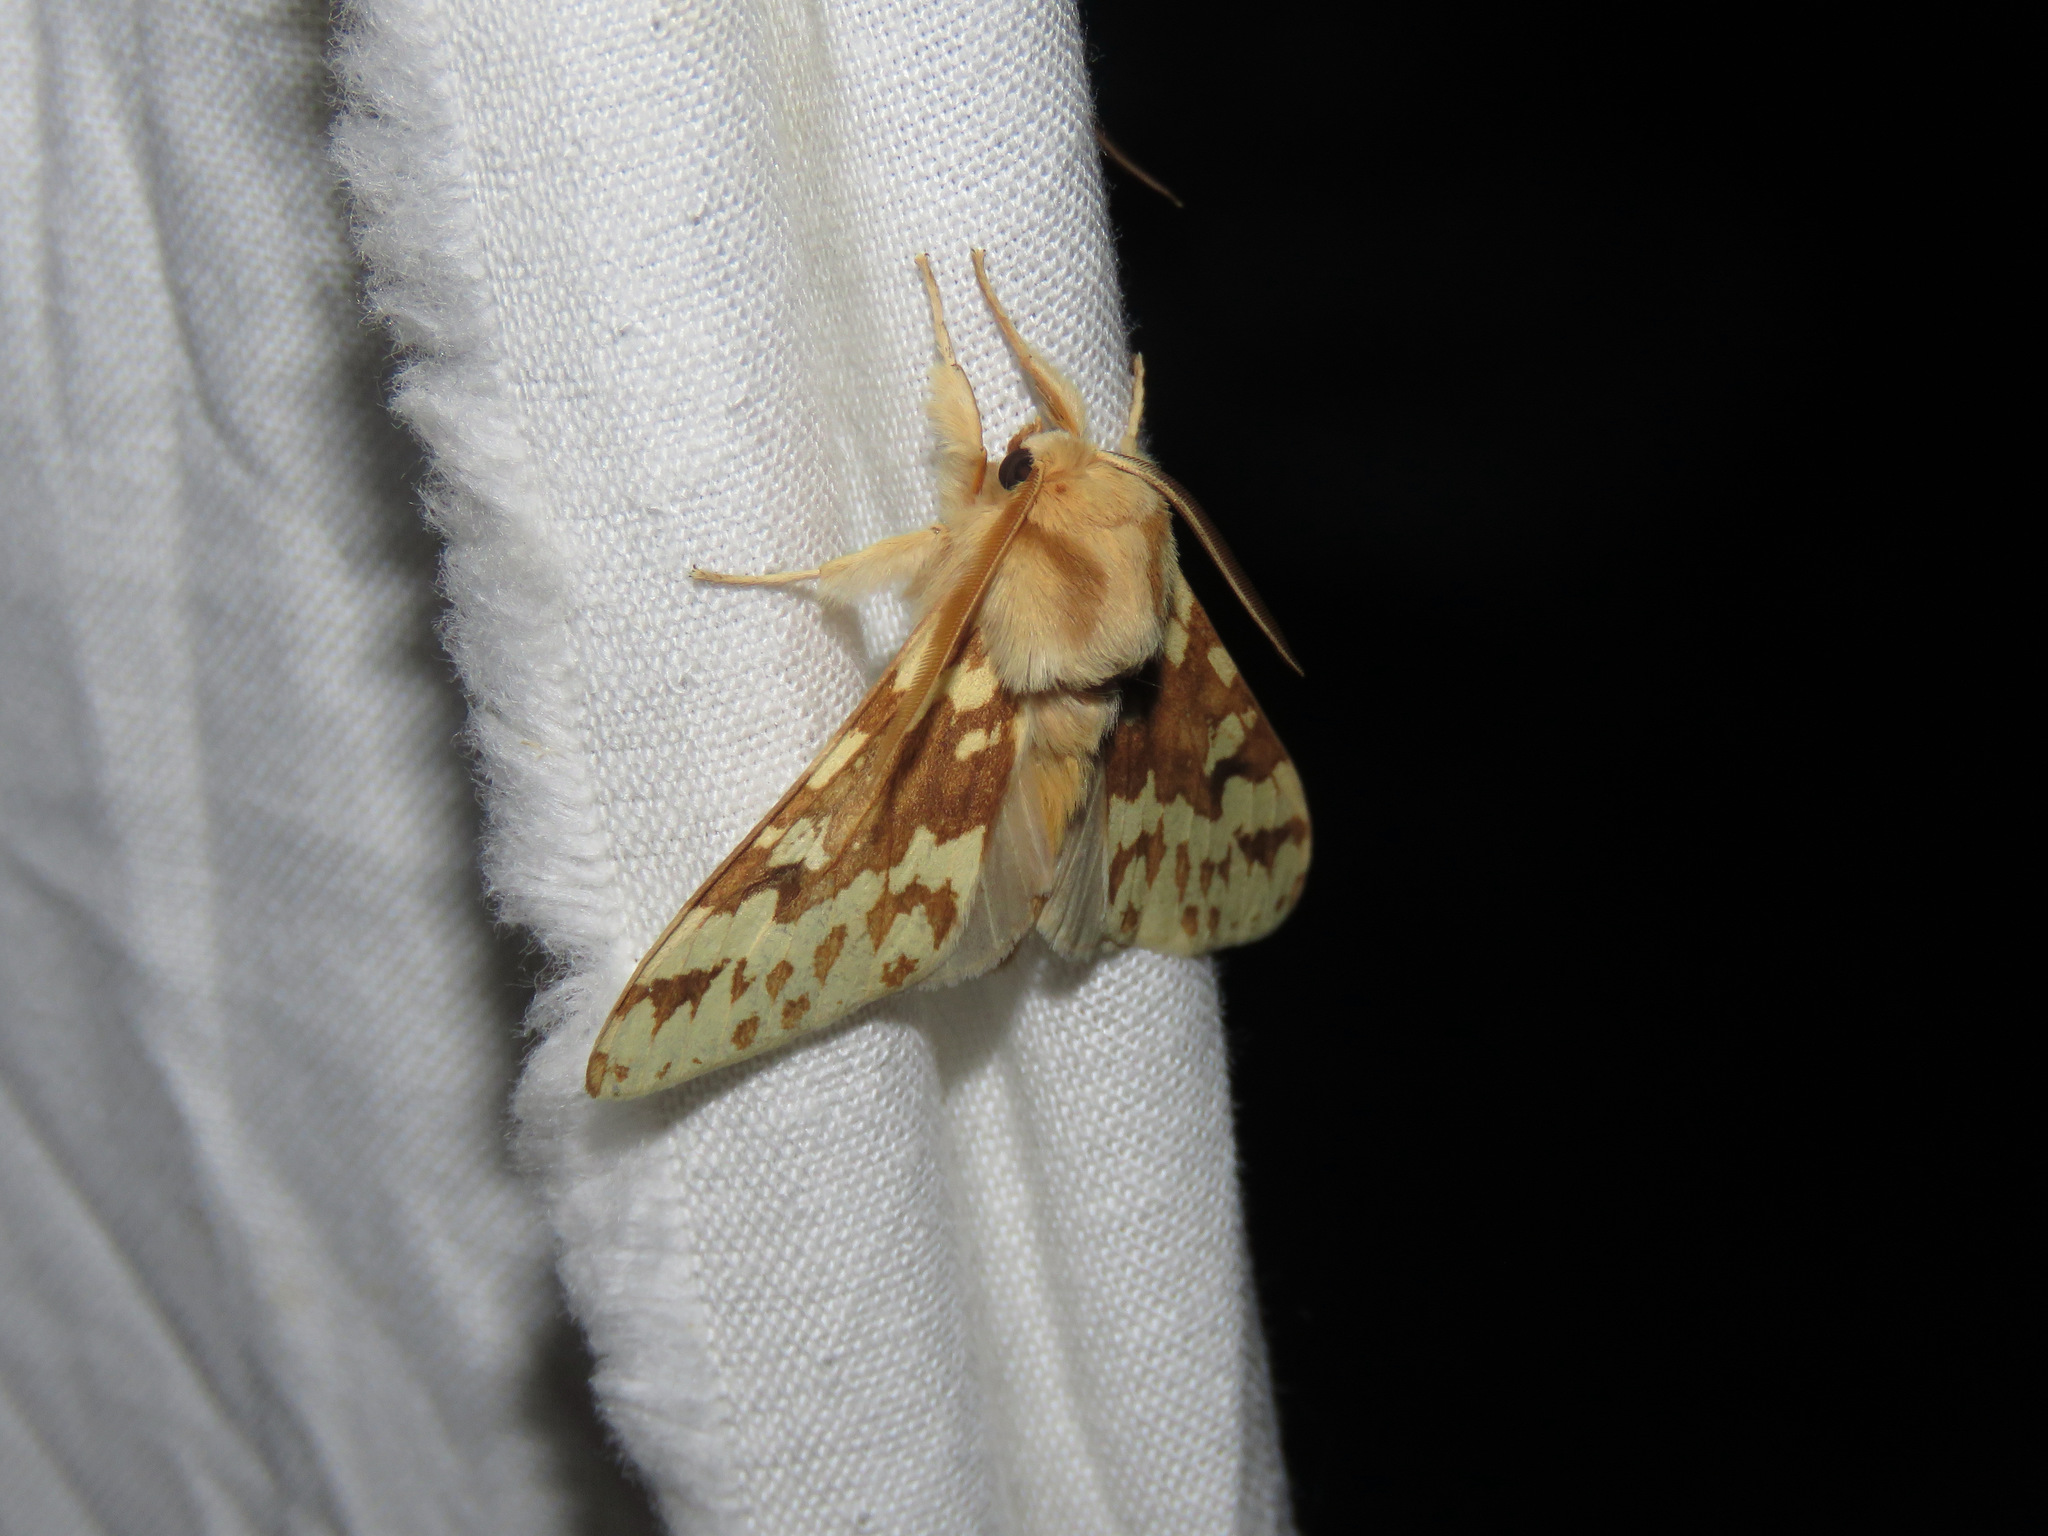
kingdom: Animalia
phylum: Arthropoda
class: Insecta
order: Lepidoptera
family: Erebidae
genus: Lophocampa
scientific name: Lophocampa maculata
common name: Spotted tussock moth
